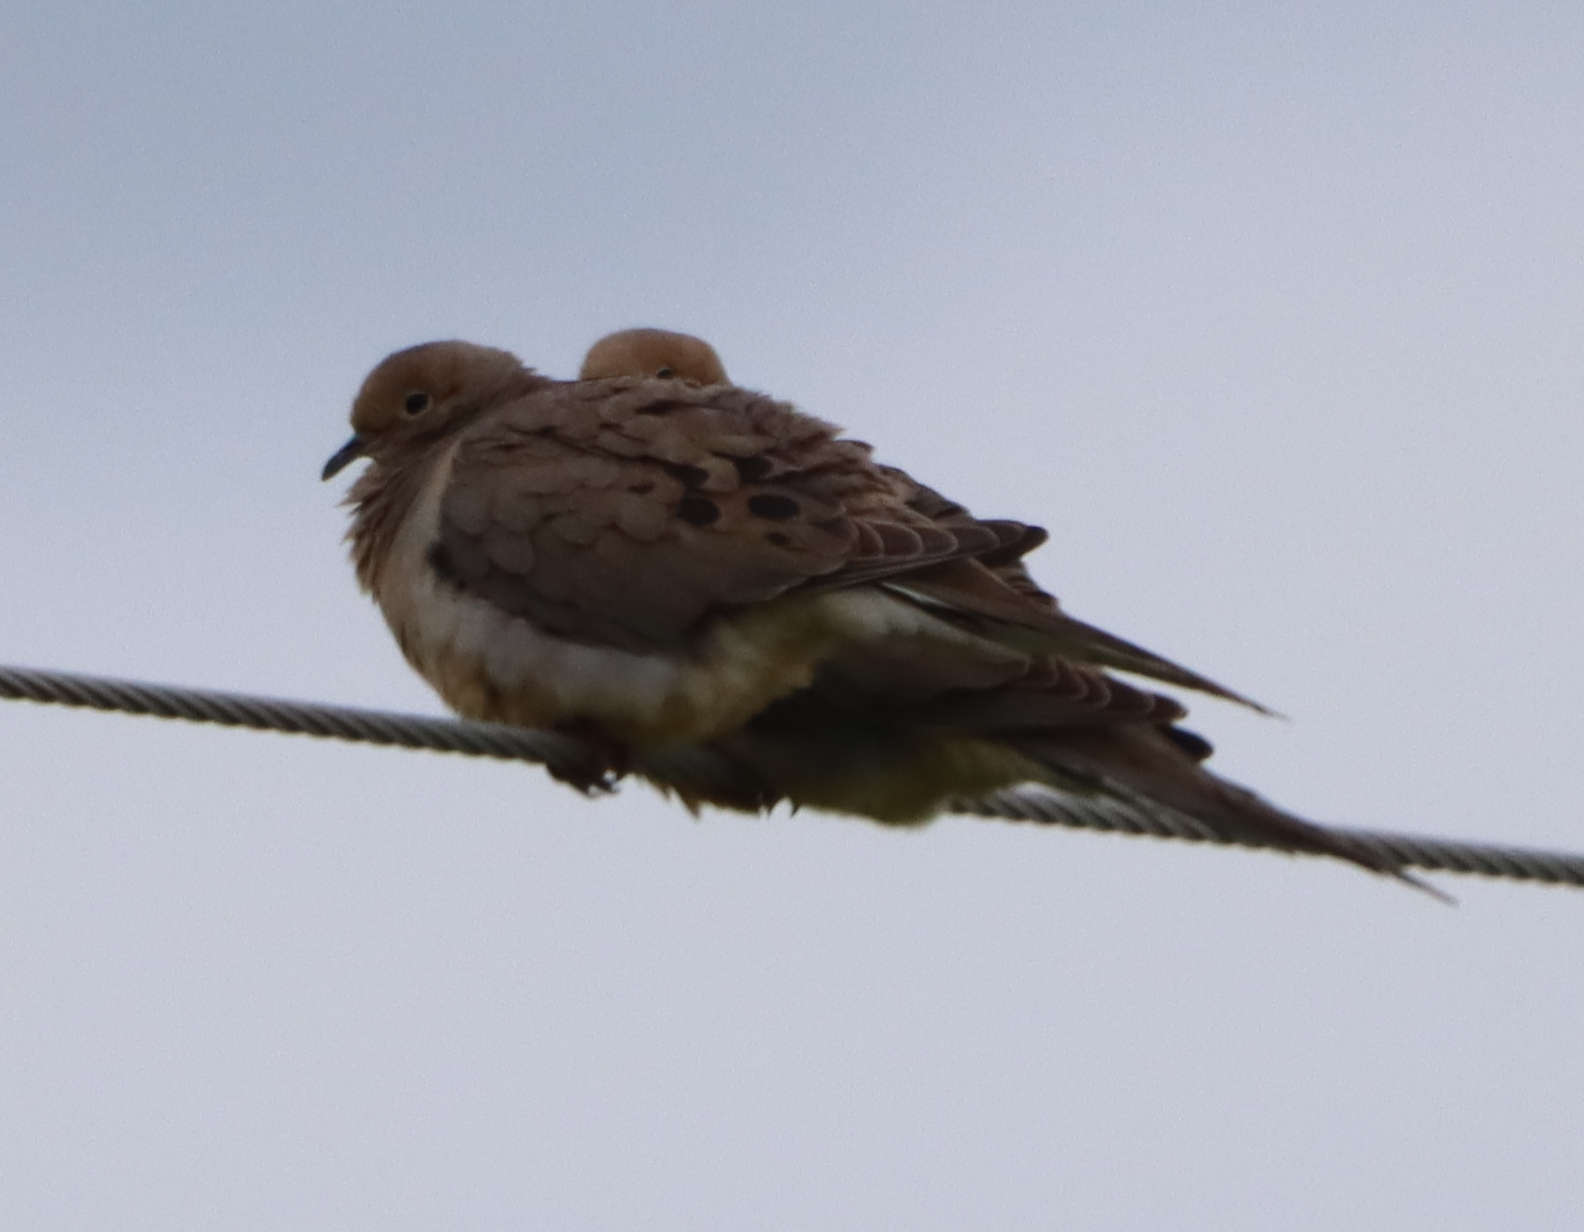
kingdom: Animalia
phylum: Chordata
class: Aves
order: Columbiformes
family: Columbidae
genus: Zenaida
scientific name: Zenaida macroura
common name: Mourning dove
